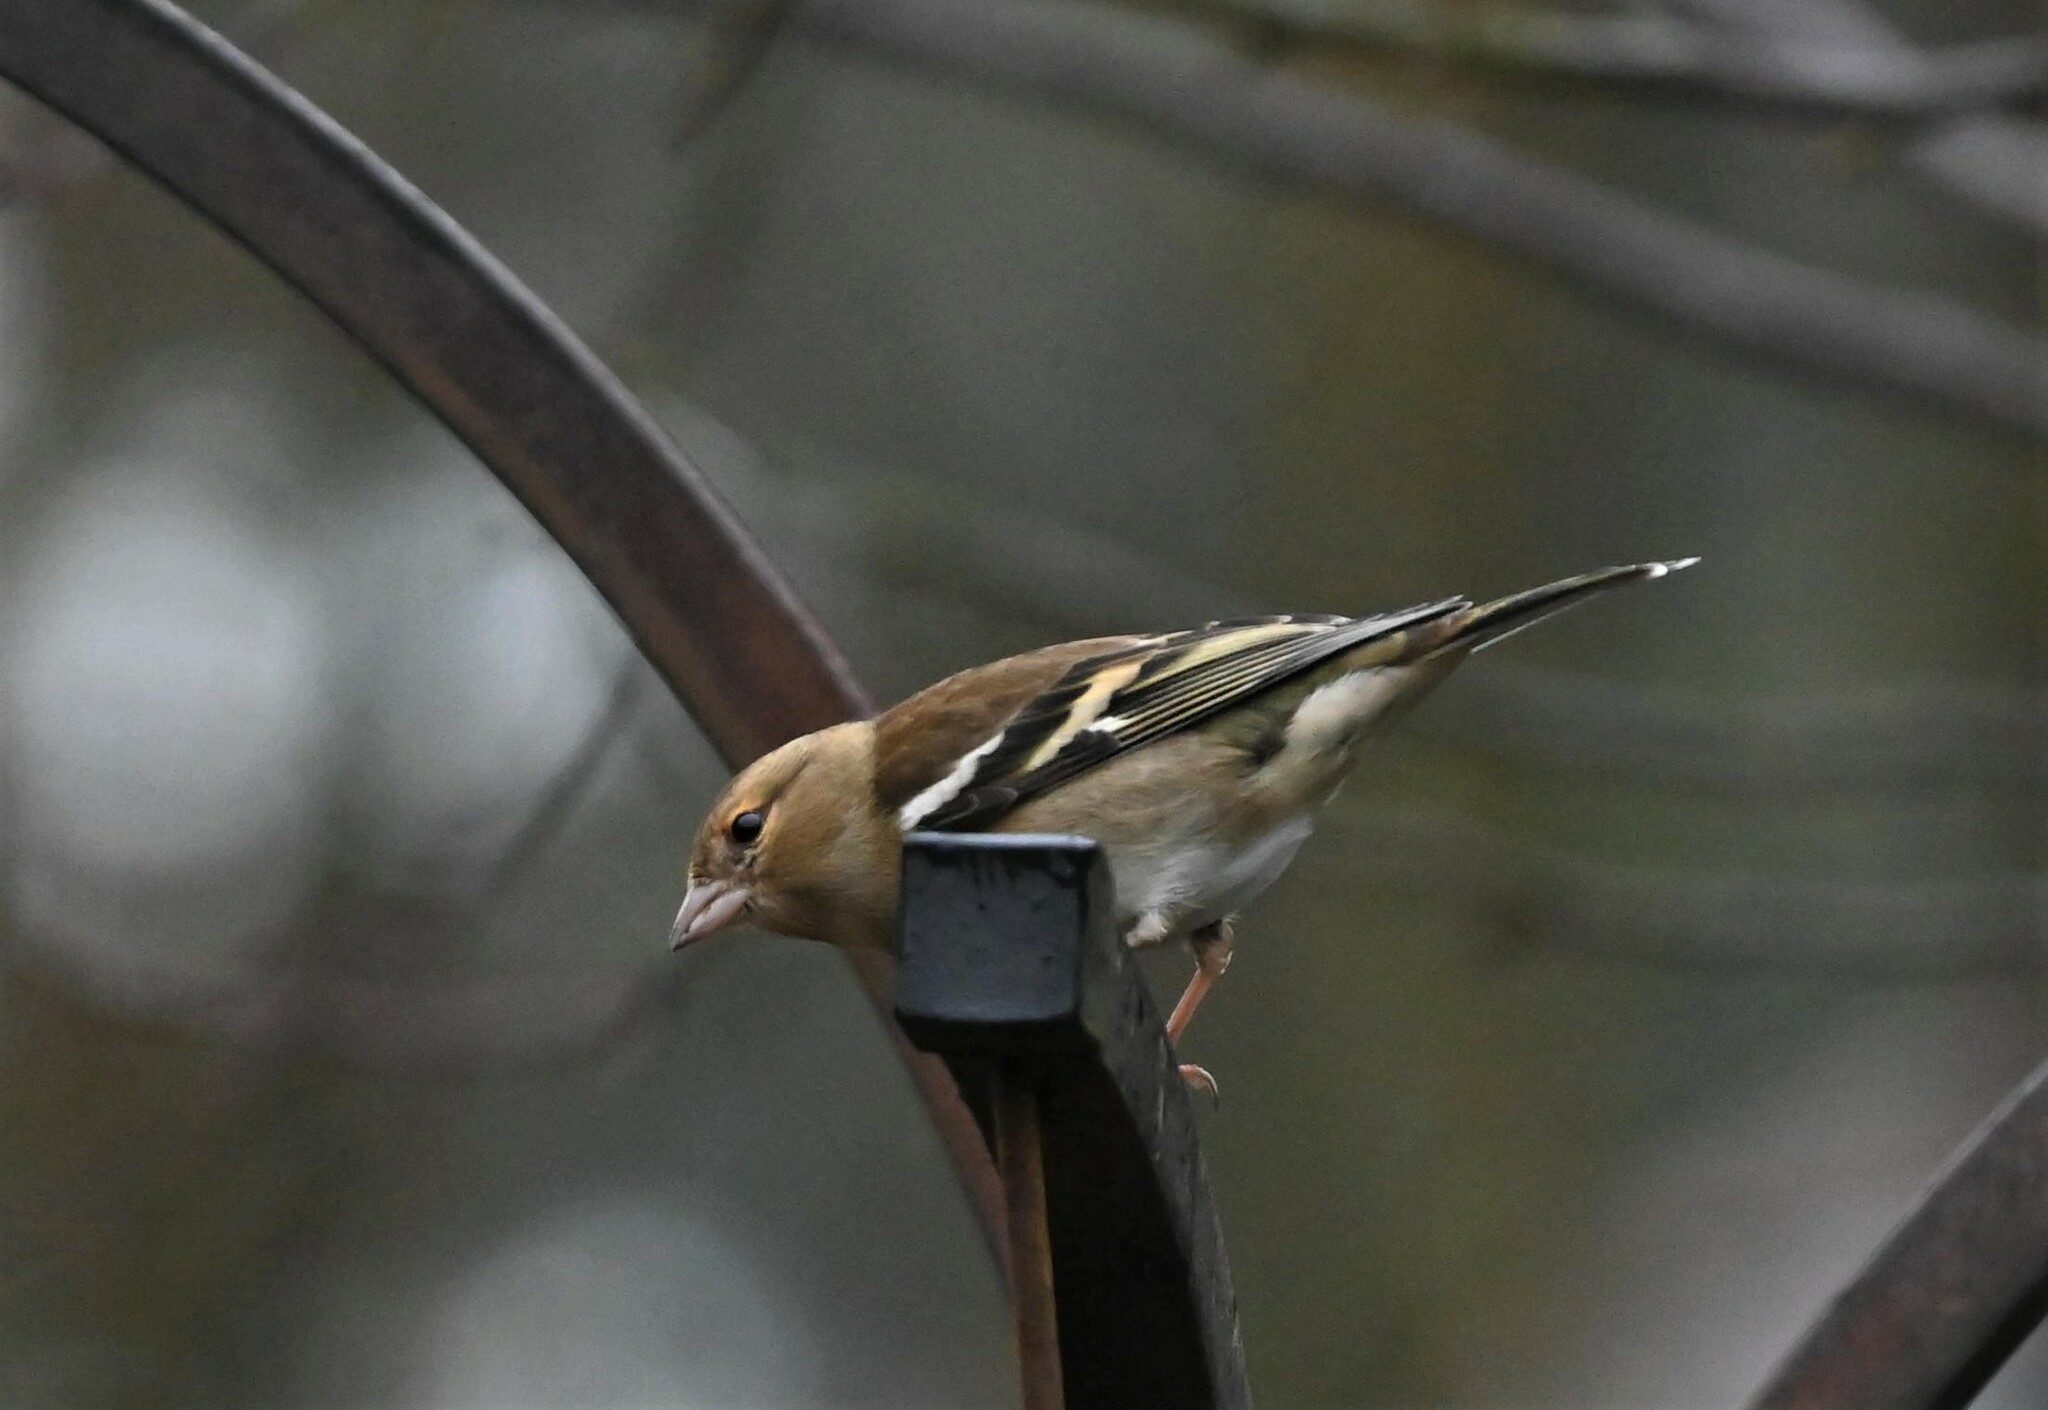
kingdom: Animalia
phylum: Chordata
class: Aves
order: Passeriformes
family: Fringillidae
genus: Fringilla
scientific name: Fringilla coelebs
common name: Common chaffinch
